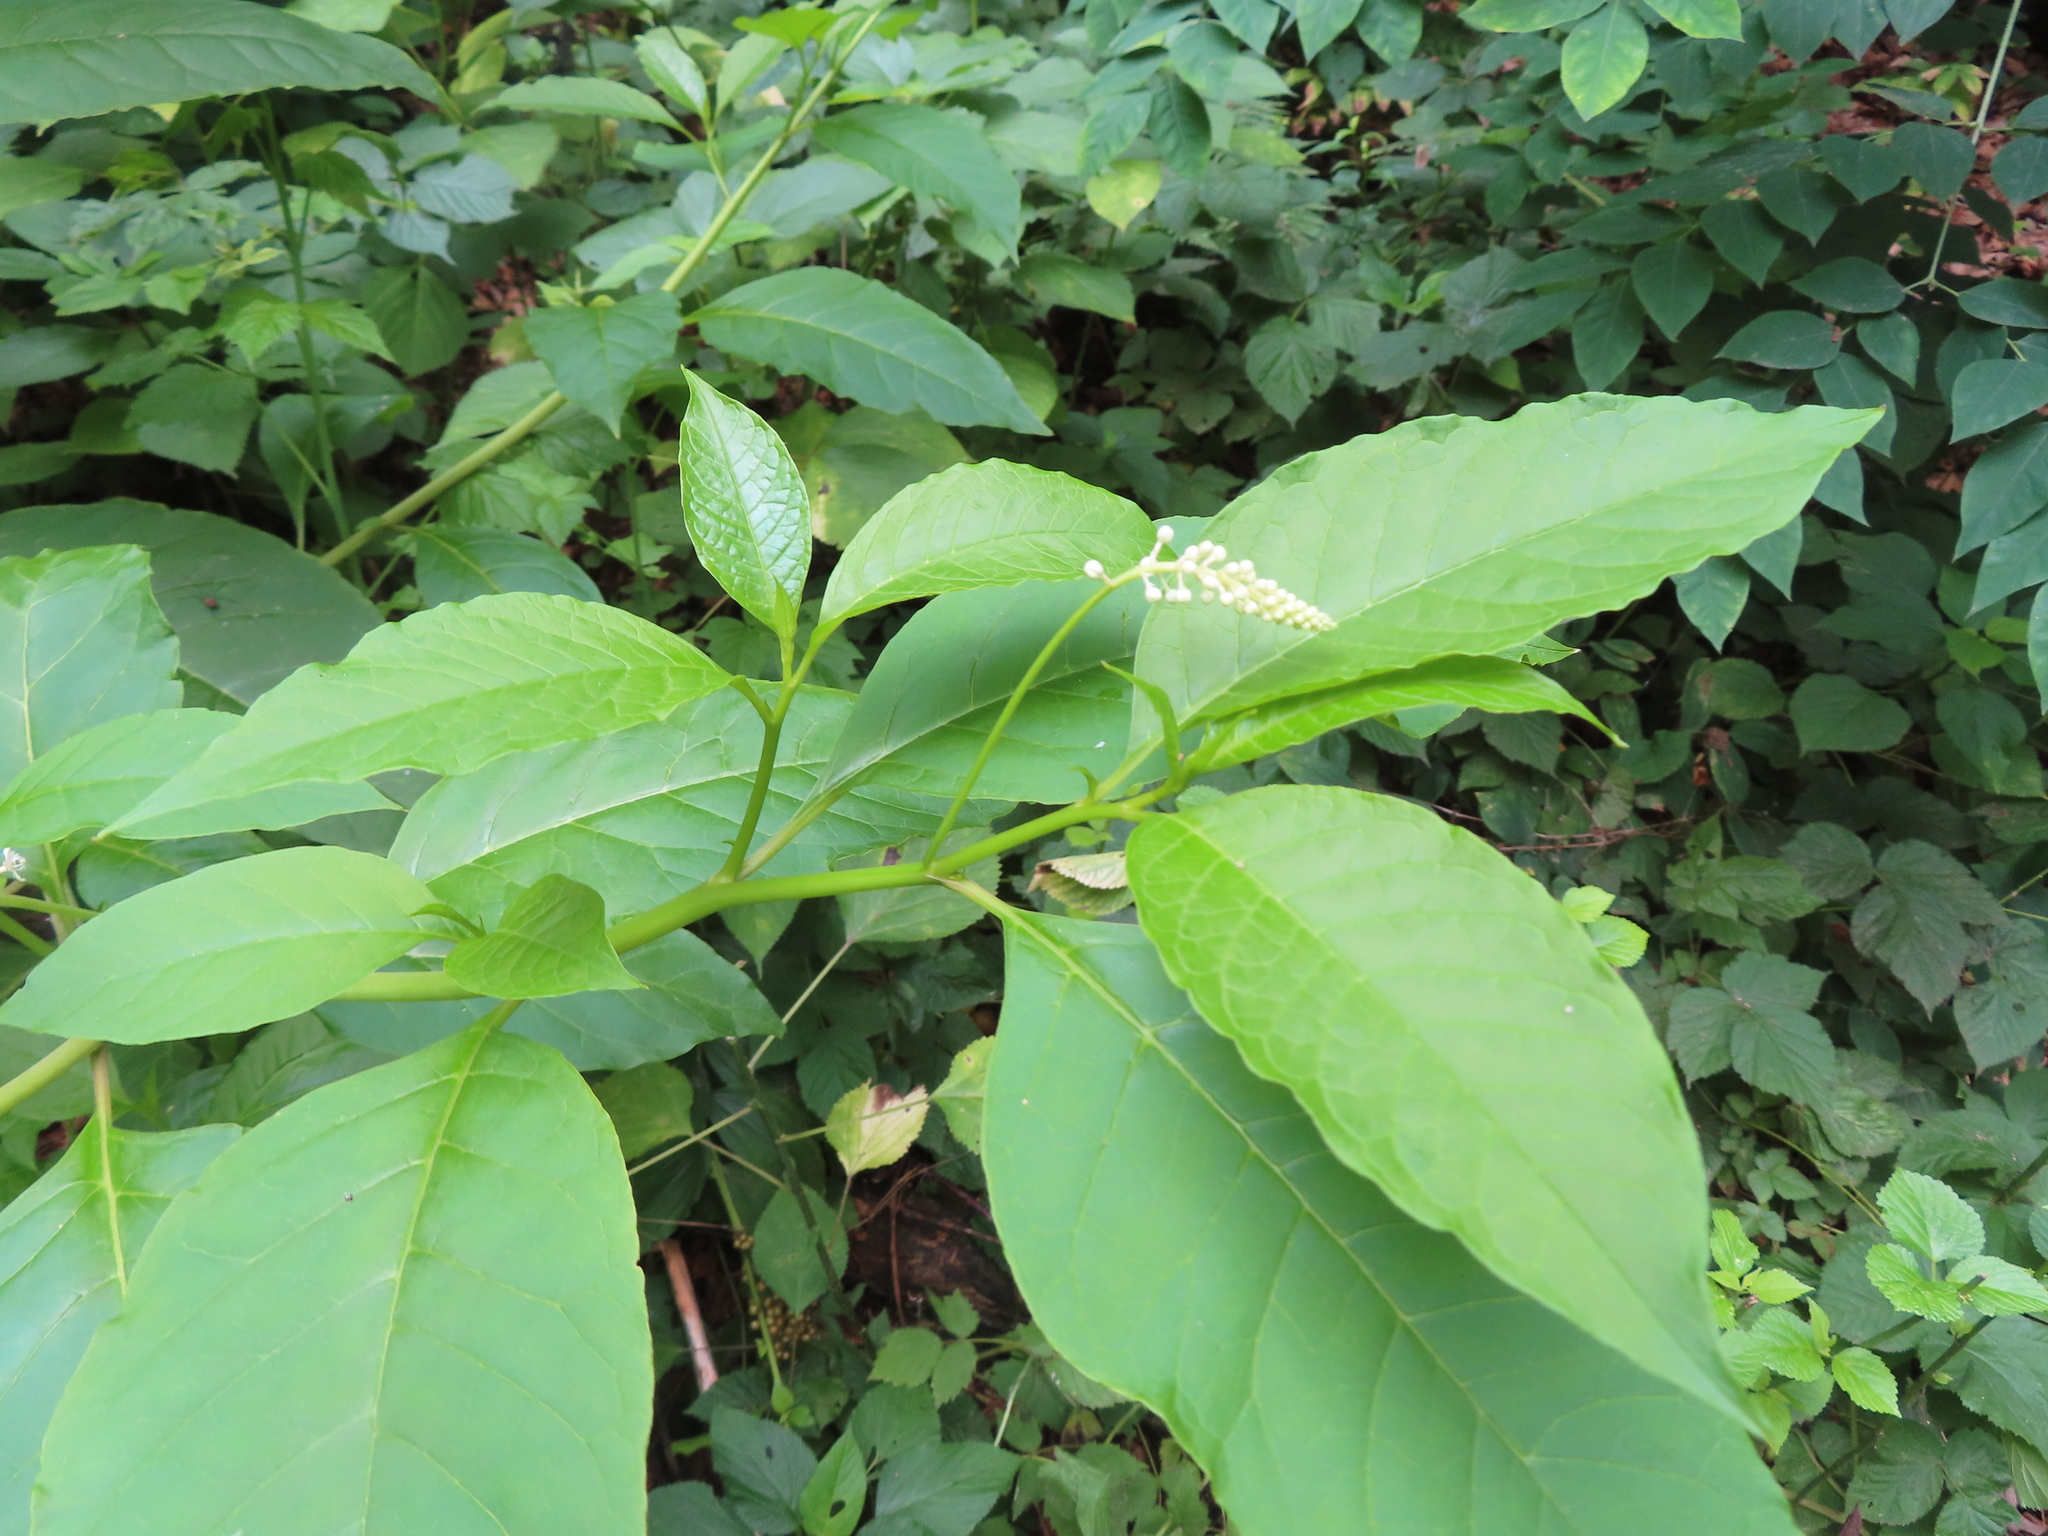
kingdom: Plantae
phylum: Tracheophyta
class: Magnoliopsida
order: Caryophyllales
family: Phytolaccaceae
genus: Phytolacca
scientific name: Phytolacca americana
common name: American pokeweed
